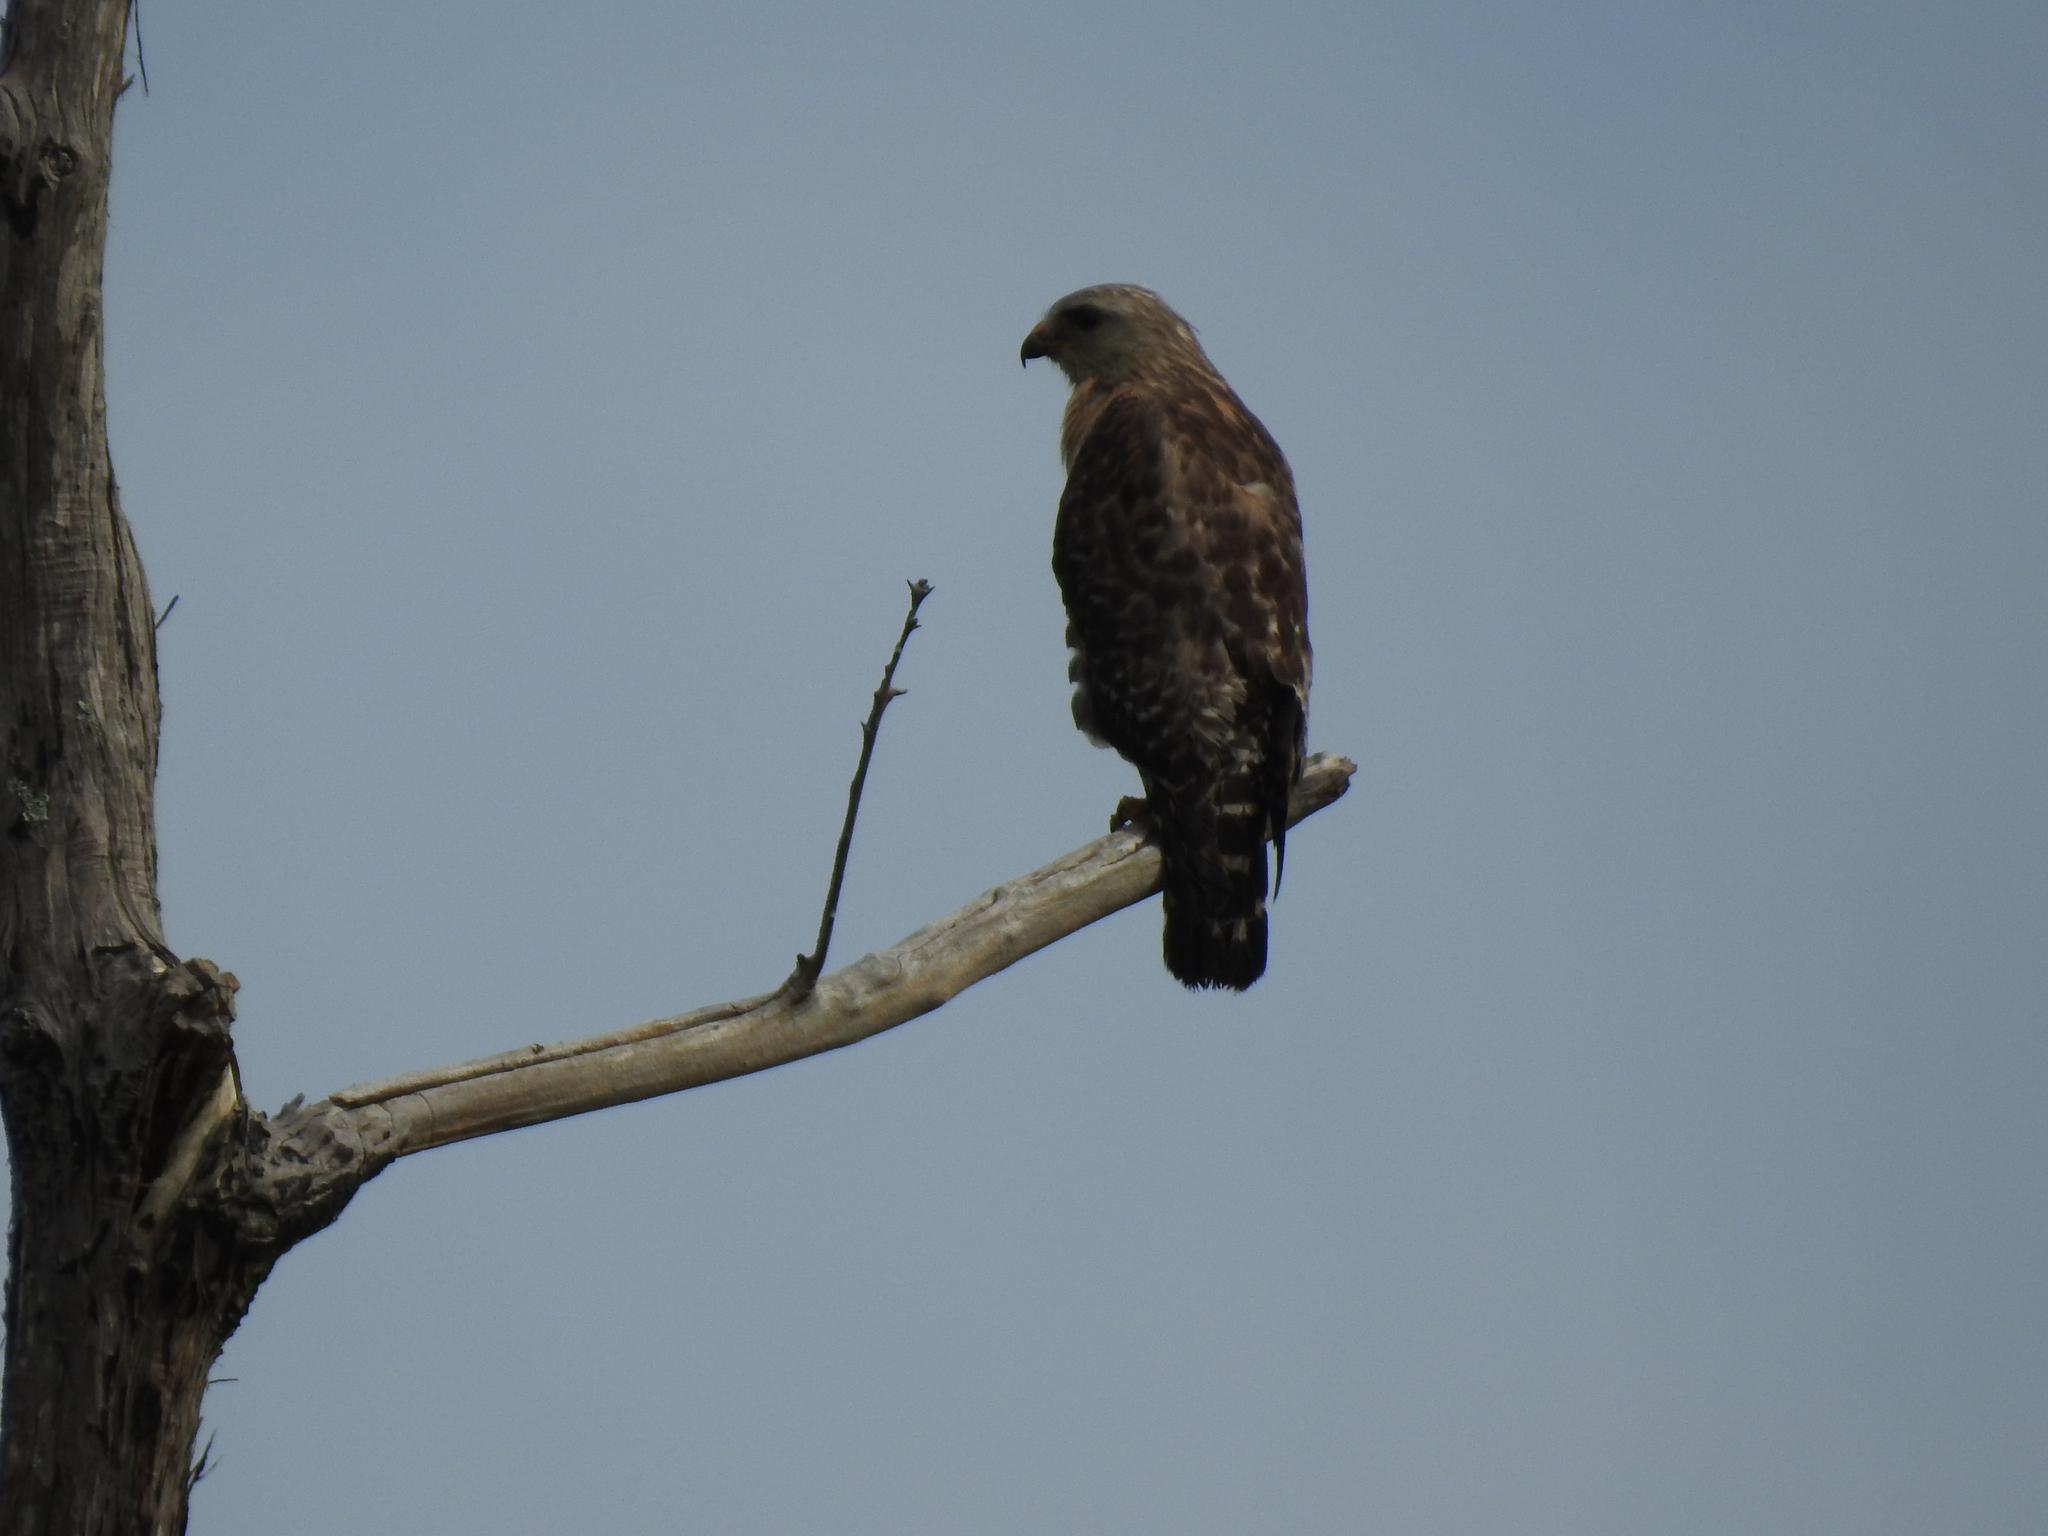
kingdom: Animalia
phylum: Chordata
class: Aves
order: Accipitriformes
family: Accipitridae
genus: Buteo
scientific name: Buteo lineatus
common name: Red-shouldered hawk
